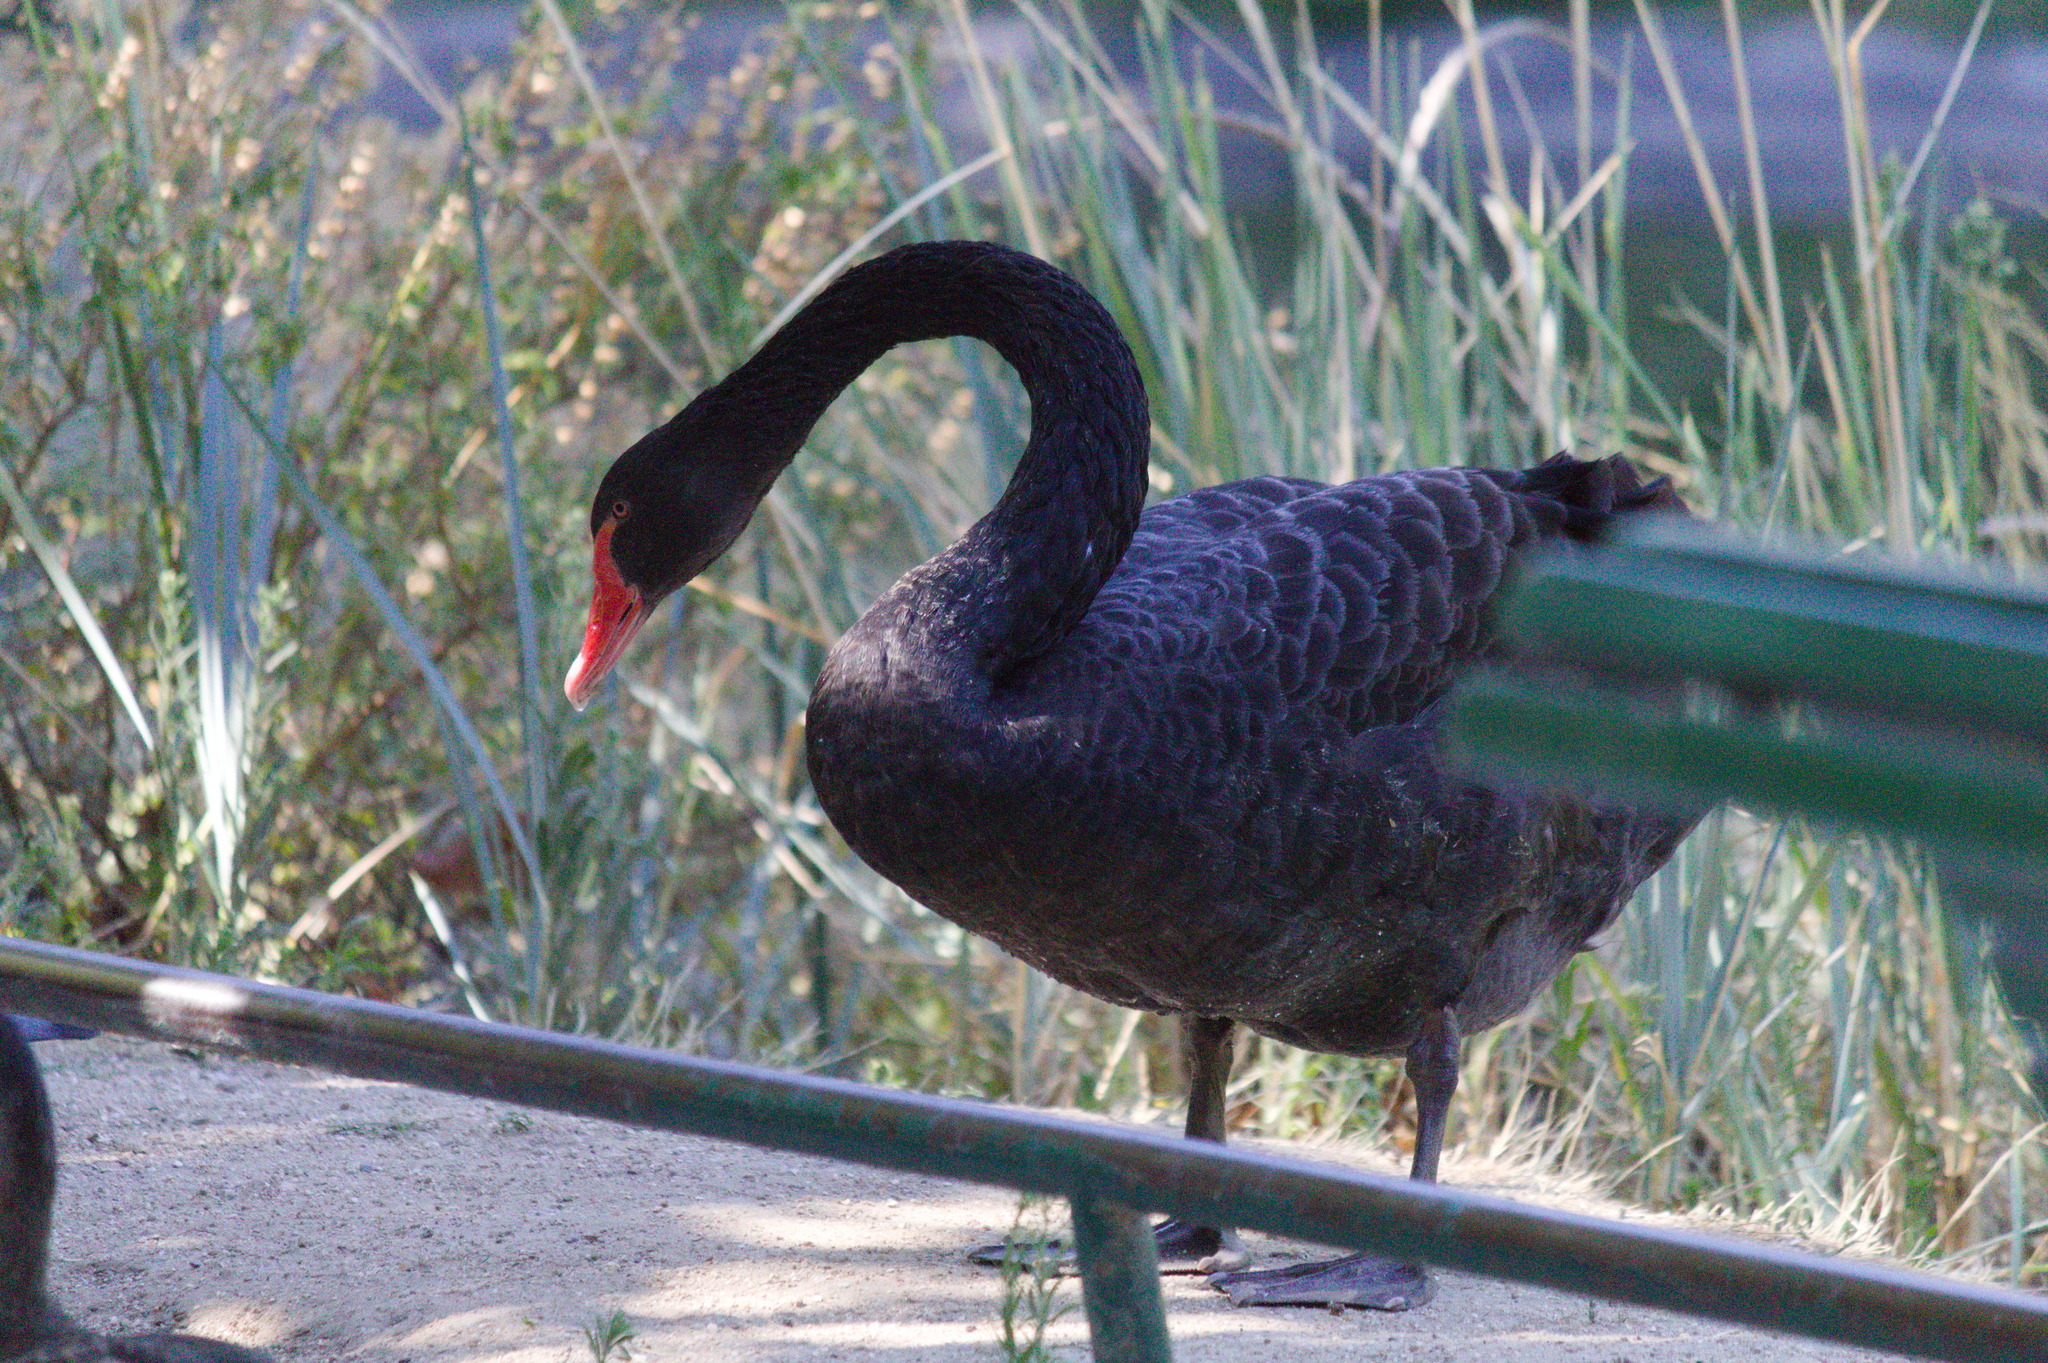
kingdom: Animalia
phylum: Chordata
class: Aves
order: Anseriformes
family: Anatidae
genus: Cygnus
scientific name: Cygnus atratus
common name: Black swan
